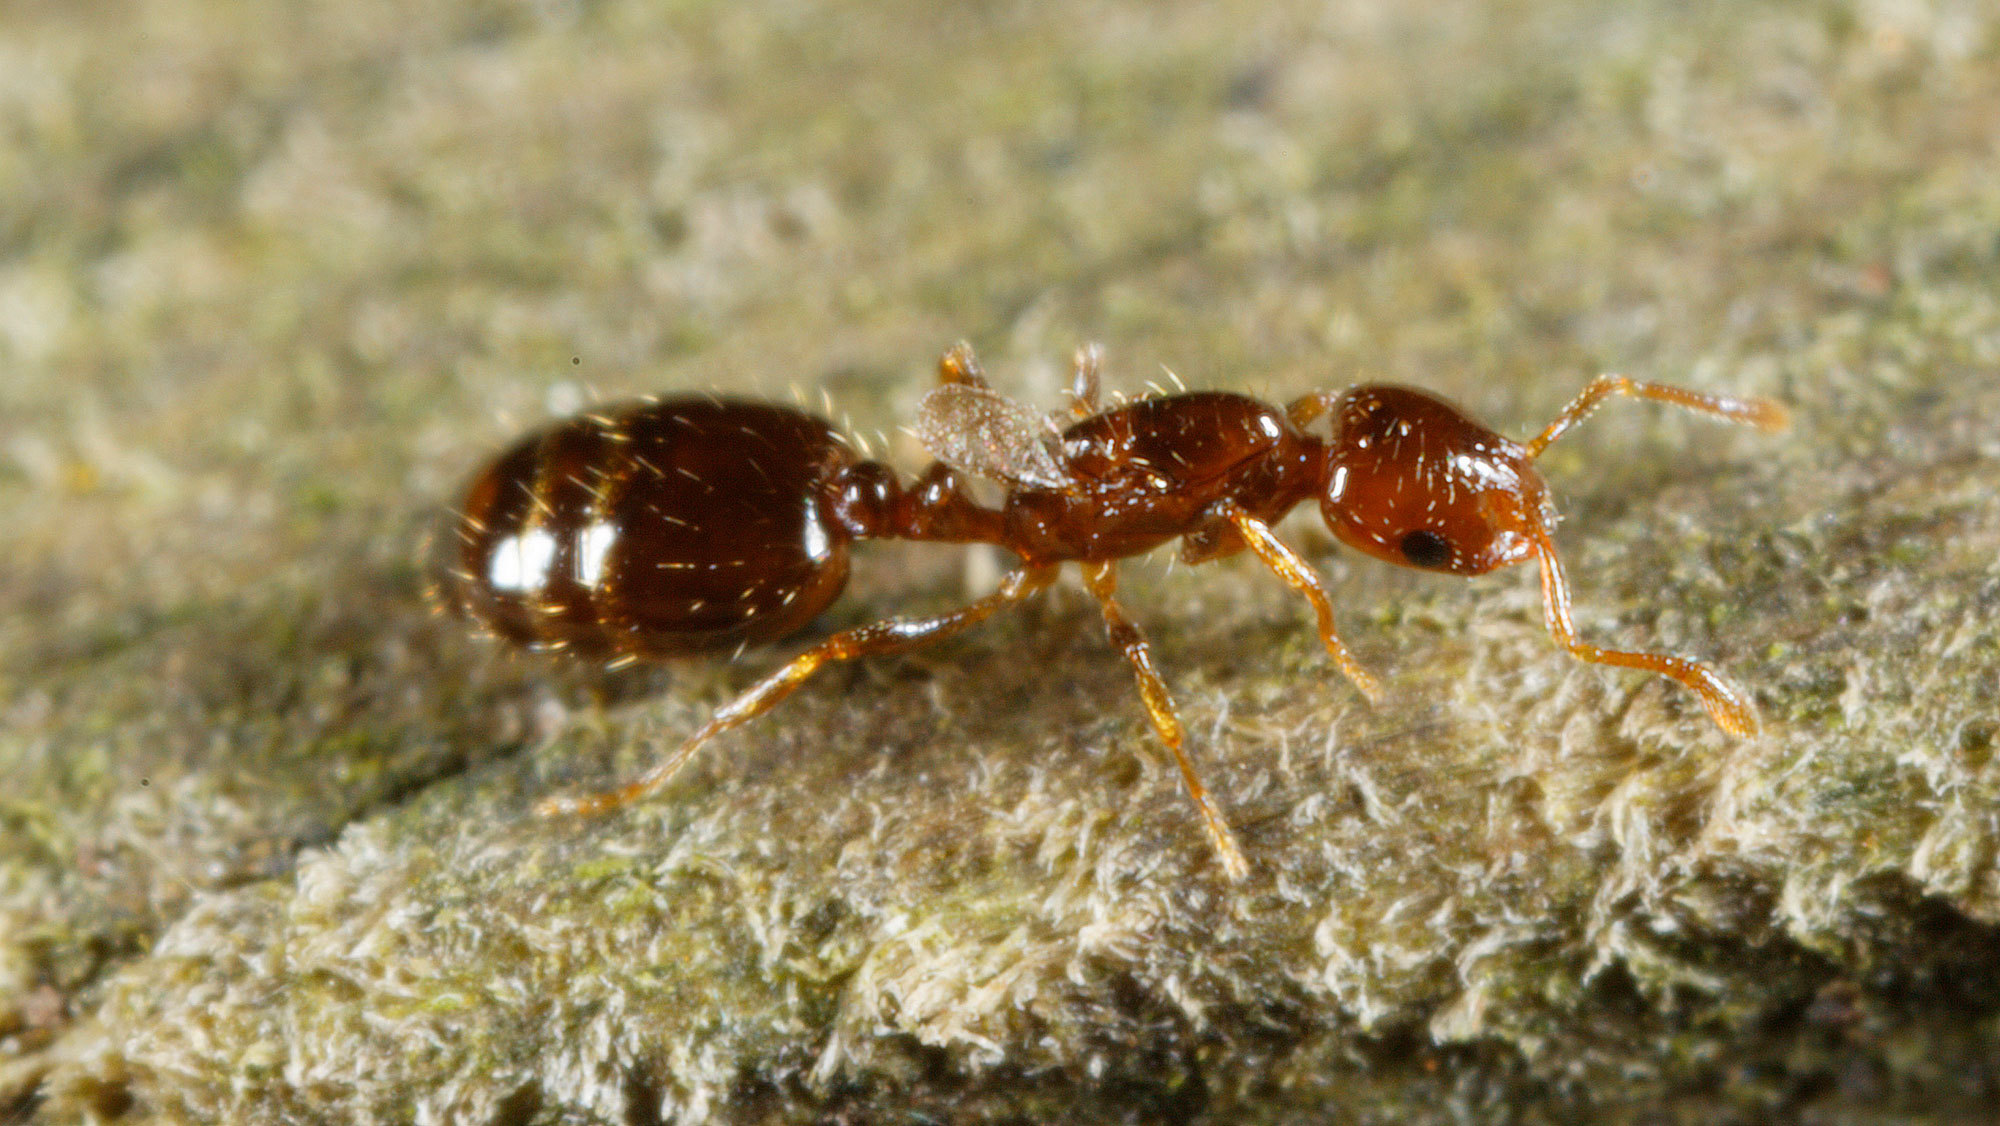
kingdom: Animalia
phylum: Arthropoda
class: Insecta
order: Hymenoptera
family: Formicidae
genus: Monomorium
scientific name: Monomorium fieldi
